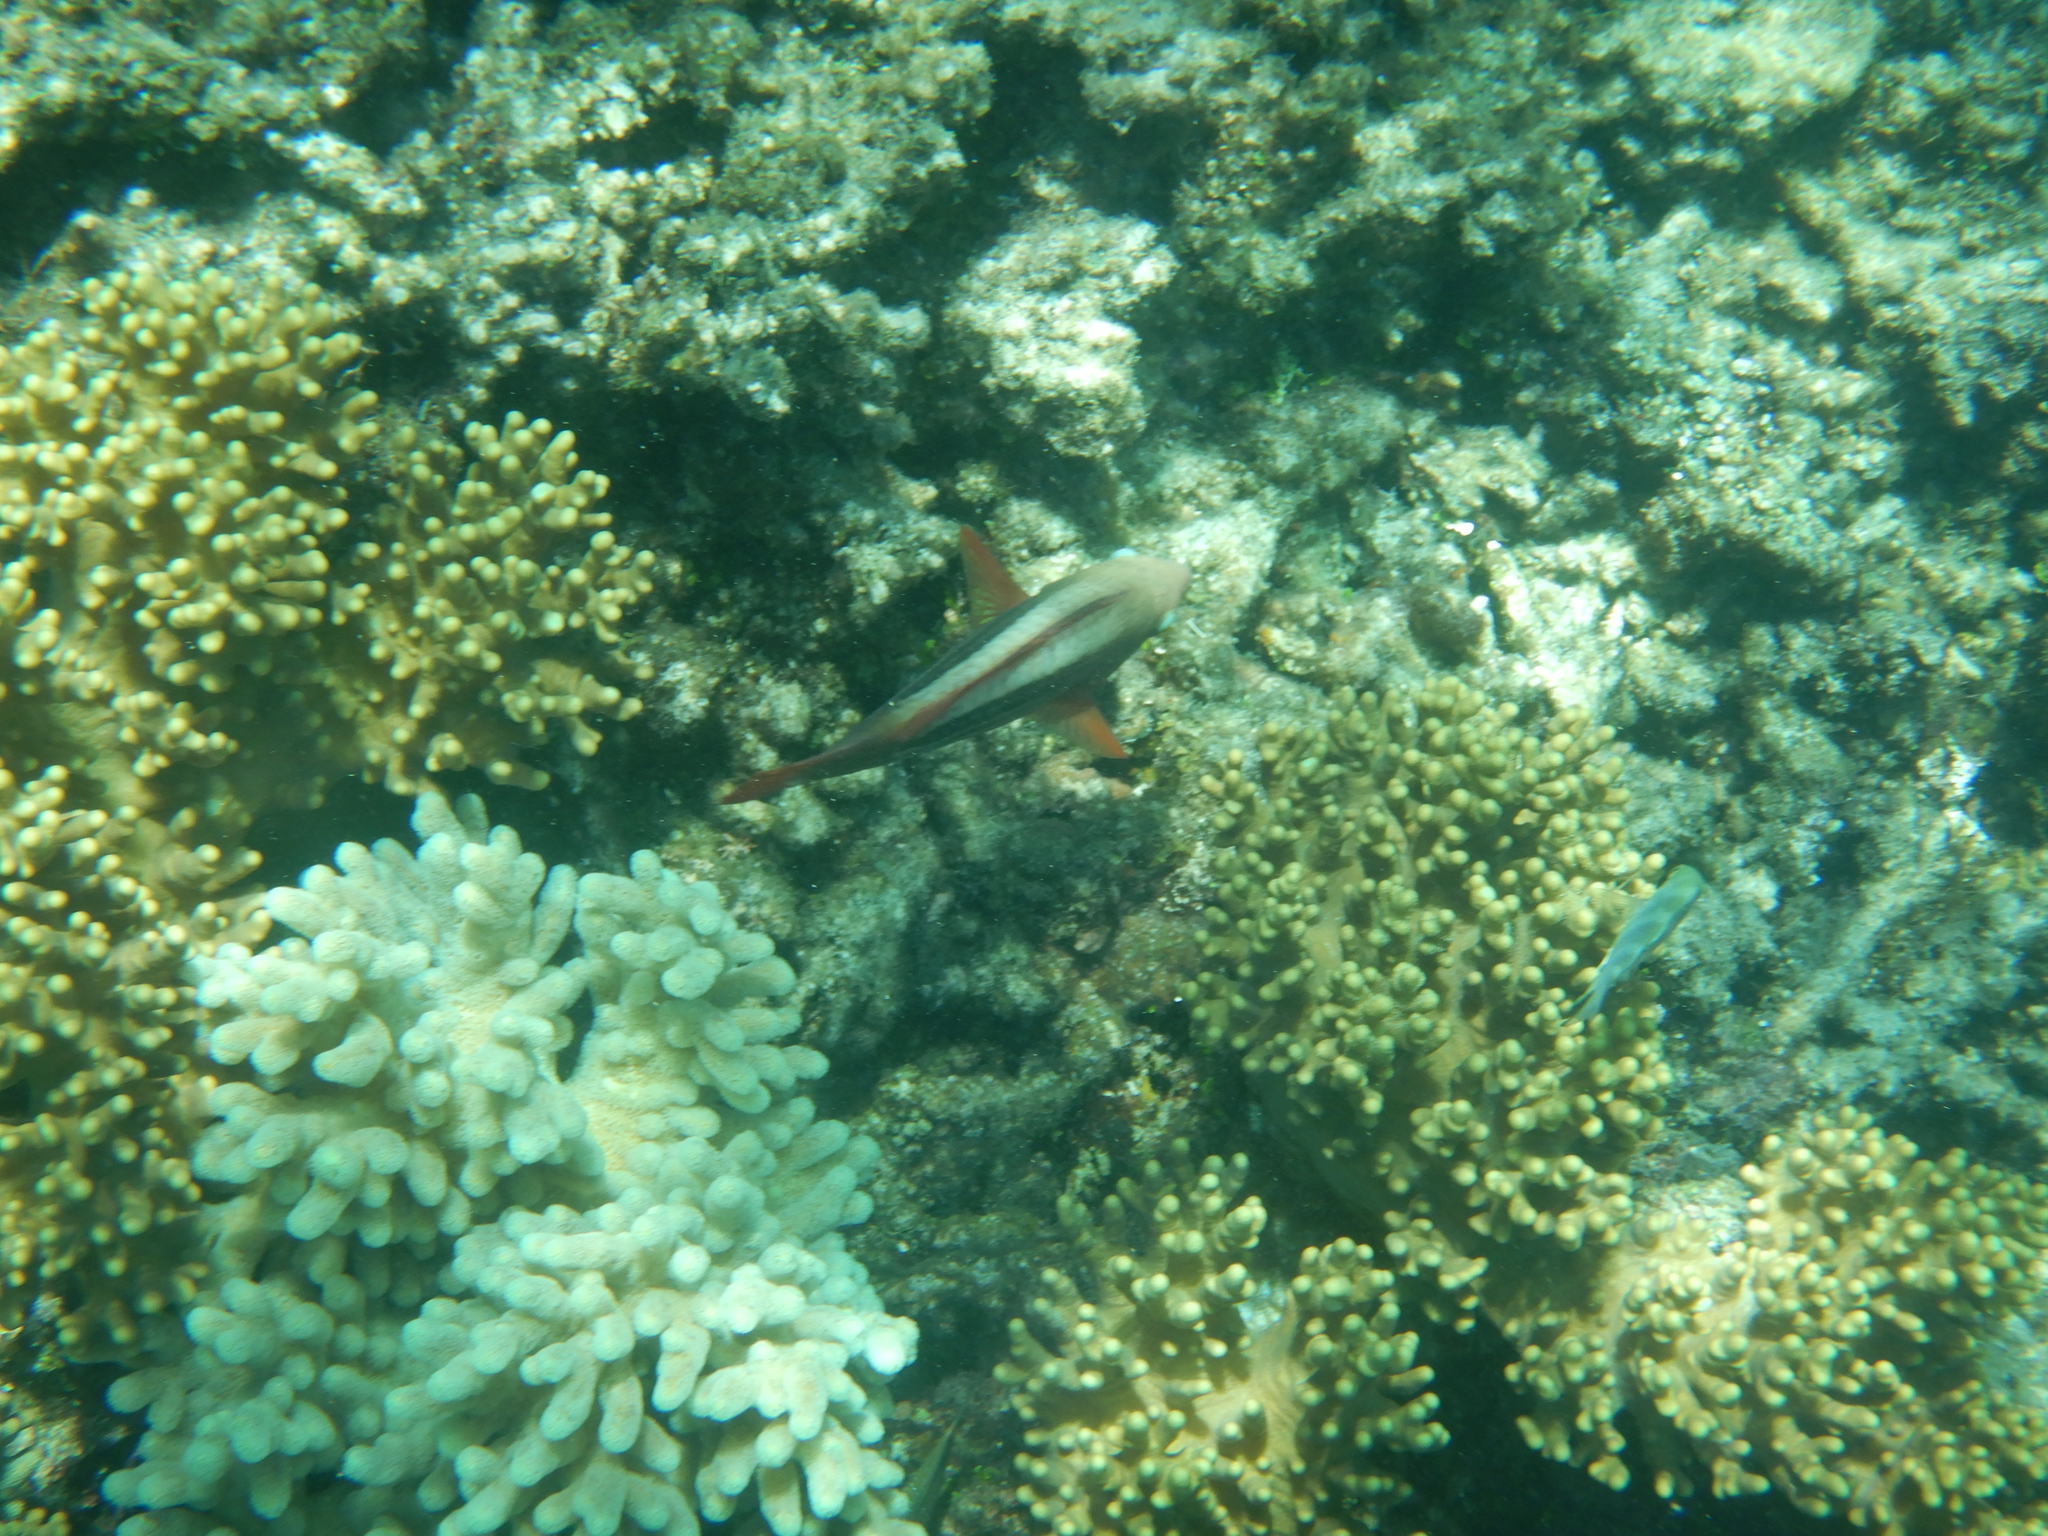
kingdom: Animalia
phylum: Chordata
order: Perciformes
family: Scaridae
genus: Scarus
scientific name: Scarus frenatus
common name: Bridled parrotfish
